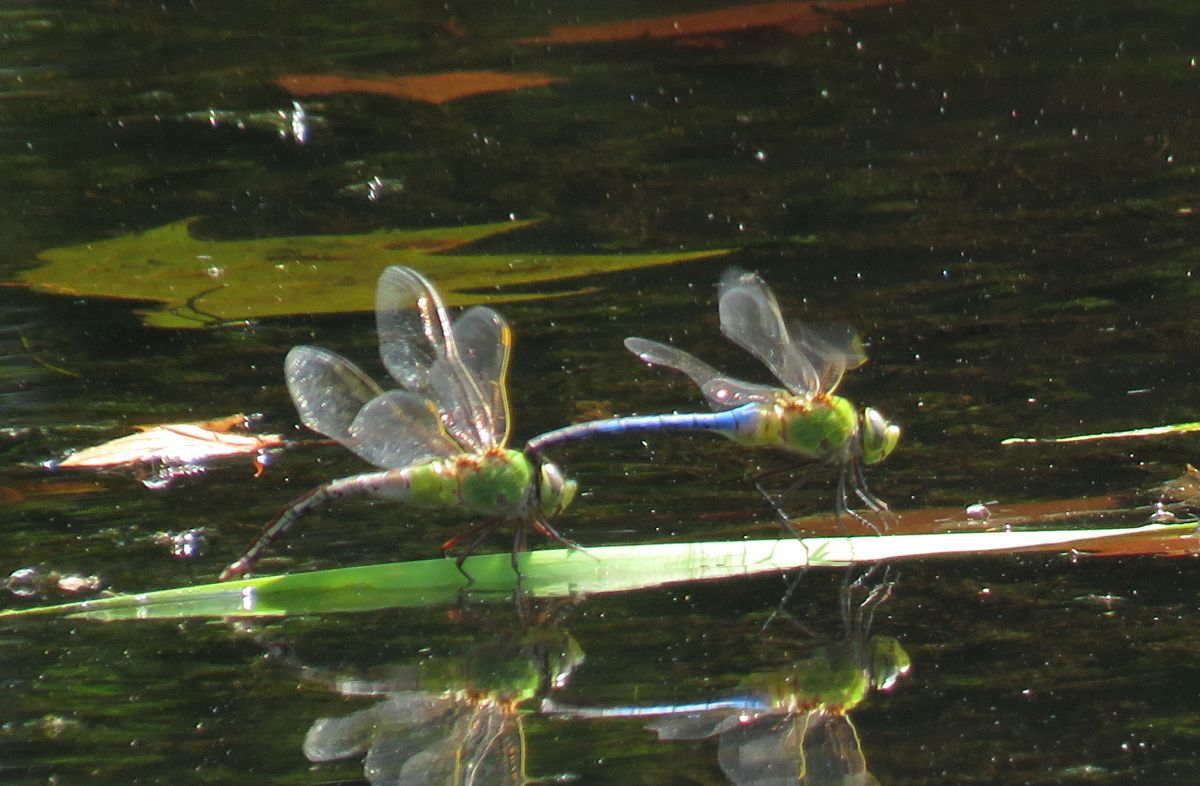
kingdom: Animalia
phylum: Arthropoda
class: Insecta
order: Odonata
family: Aeshnidae
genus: Anax
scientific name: Anax junius
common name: Common green darner
